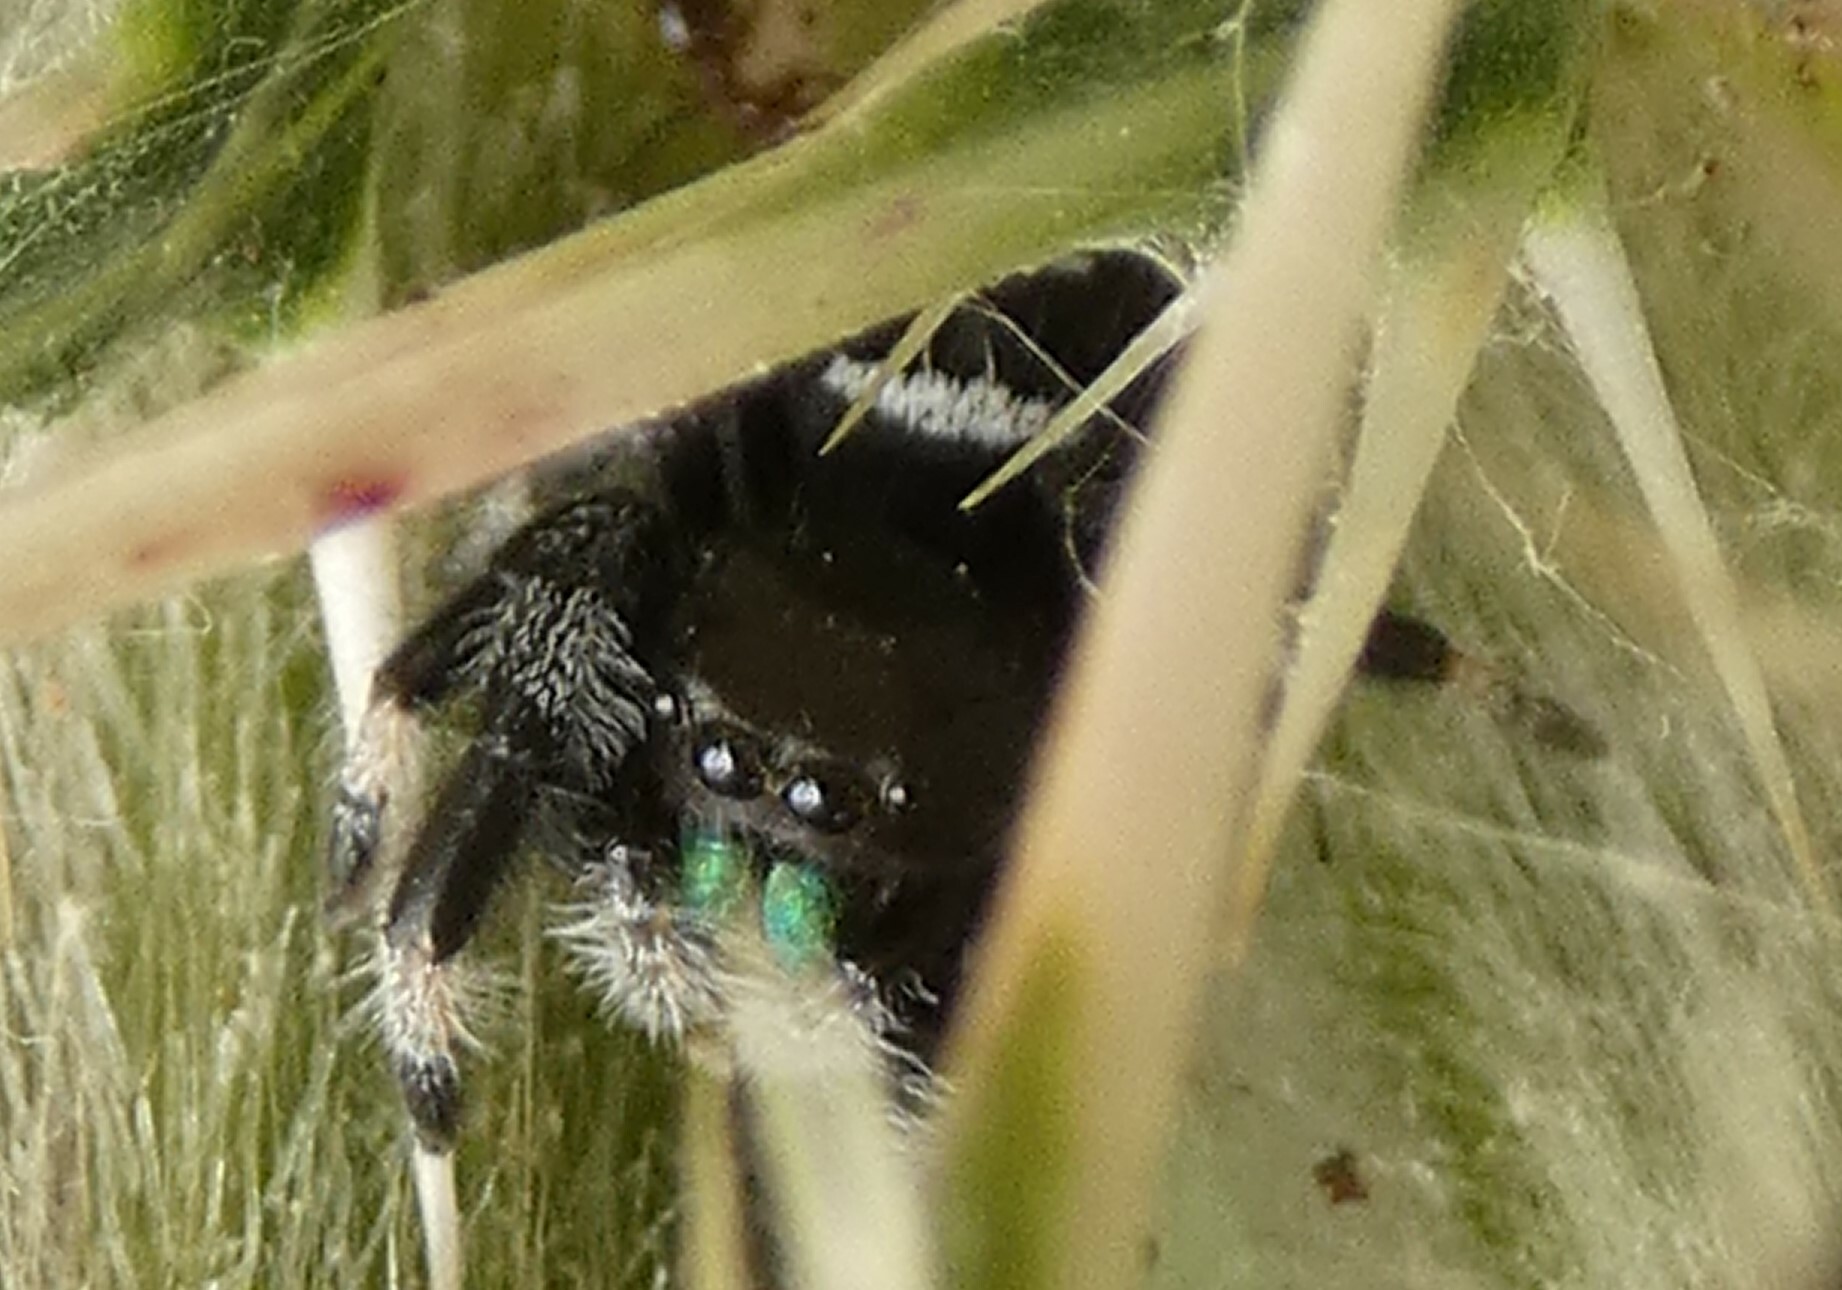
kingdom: Animalia
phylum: Arthropoda
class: Arachnida
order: Araneae
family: Salticidae
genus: Phidippus
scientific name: Phidippus regius
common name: Regal jumper
